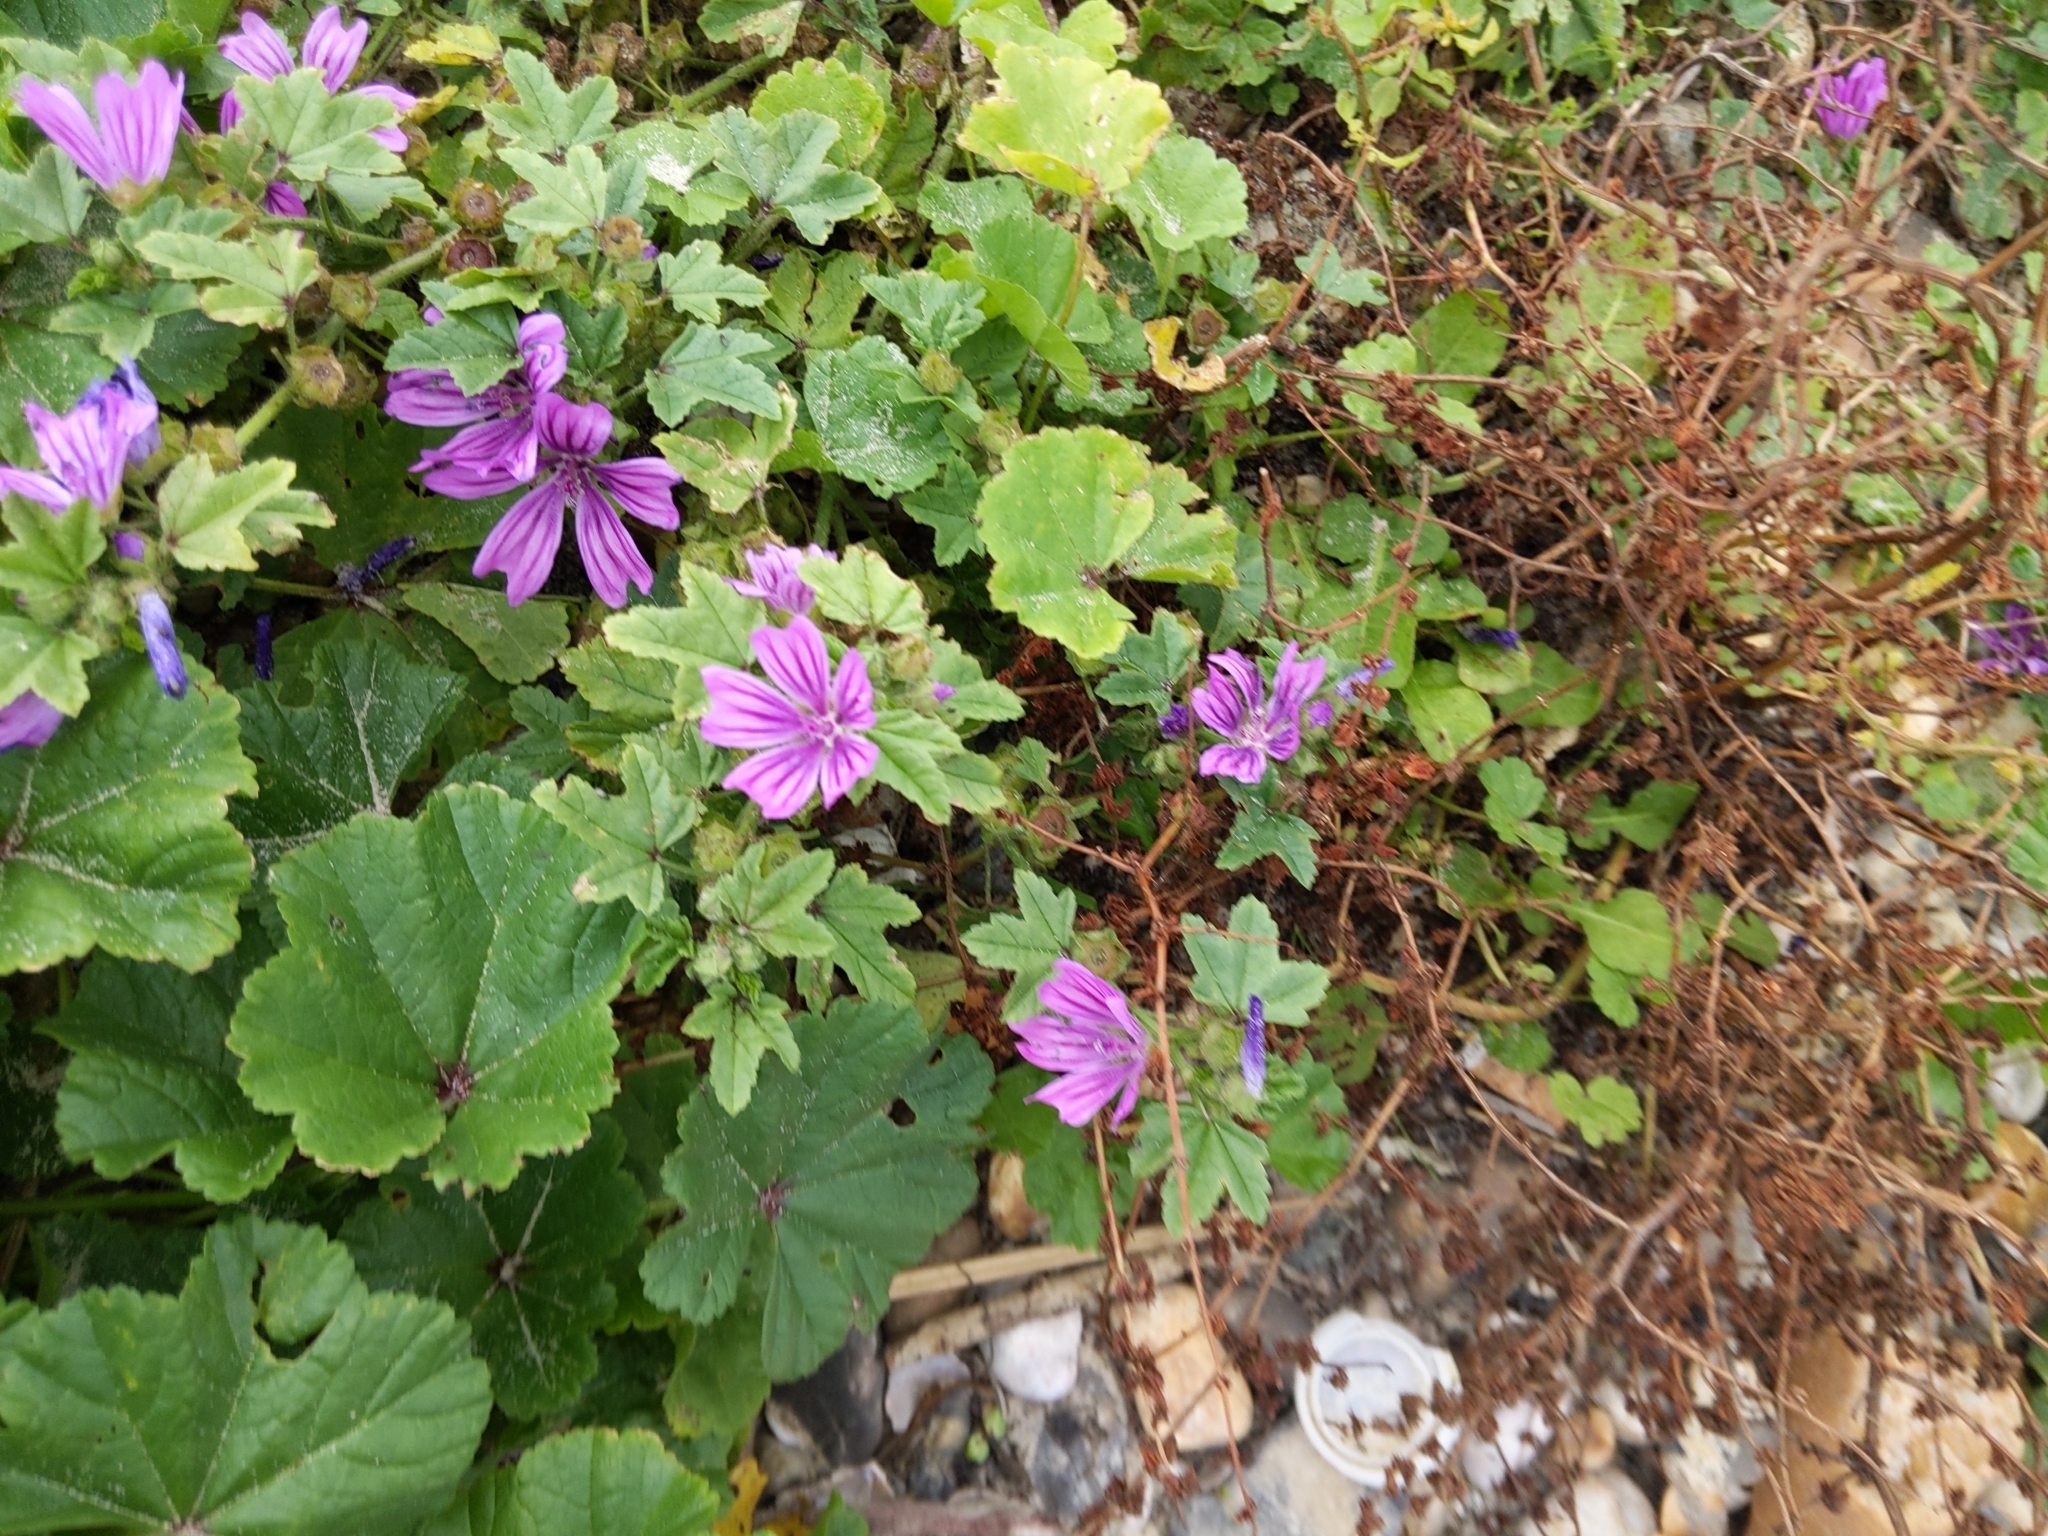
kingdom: Plantae
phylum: Tracheophyta
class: Magnoliopsida
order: Malvales
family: Malvaceae
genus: Malva
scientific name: Malva sylvestris
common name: Common mallow
